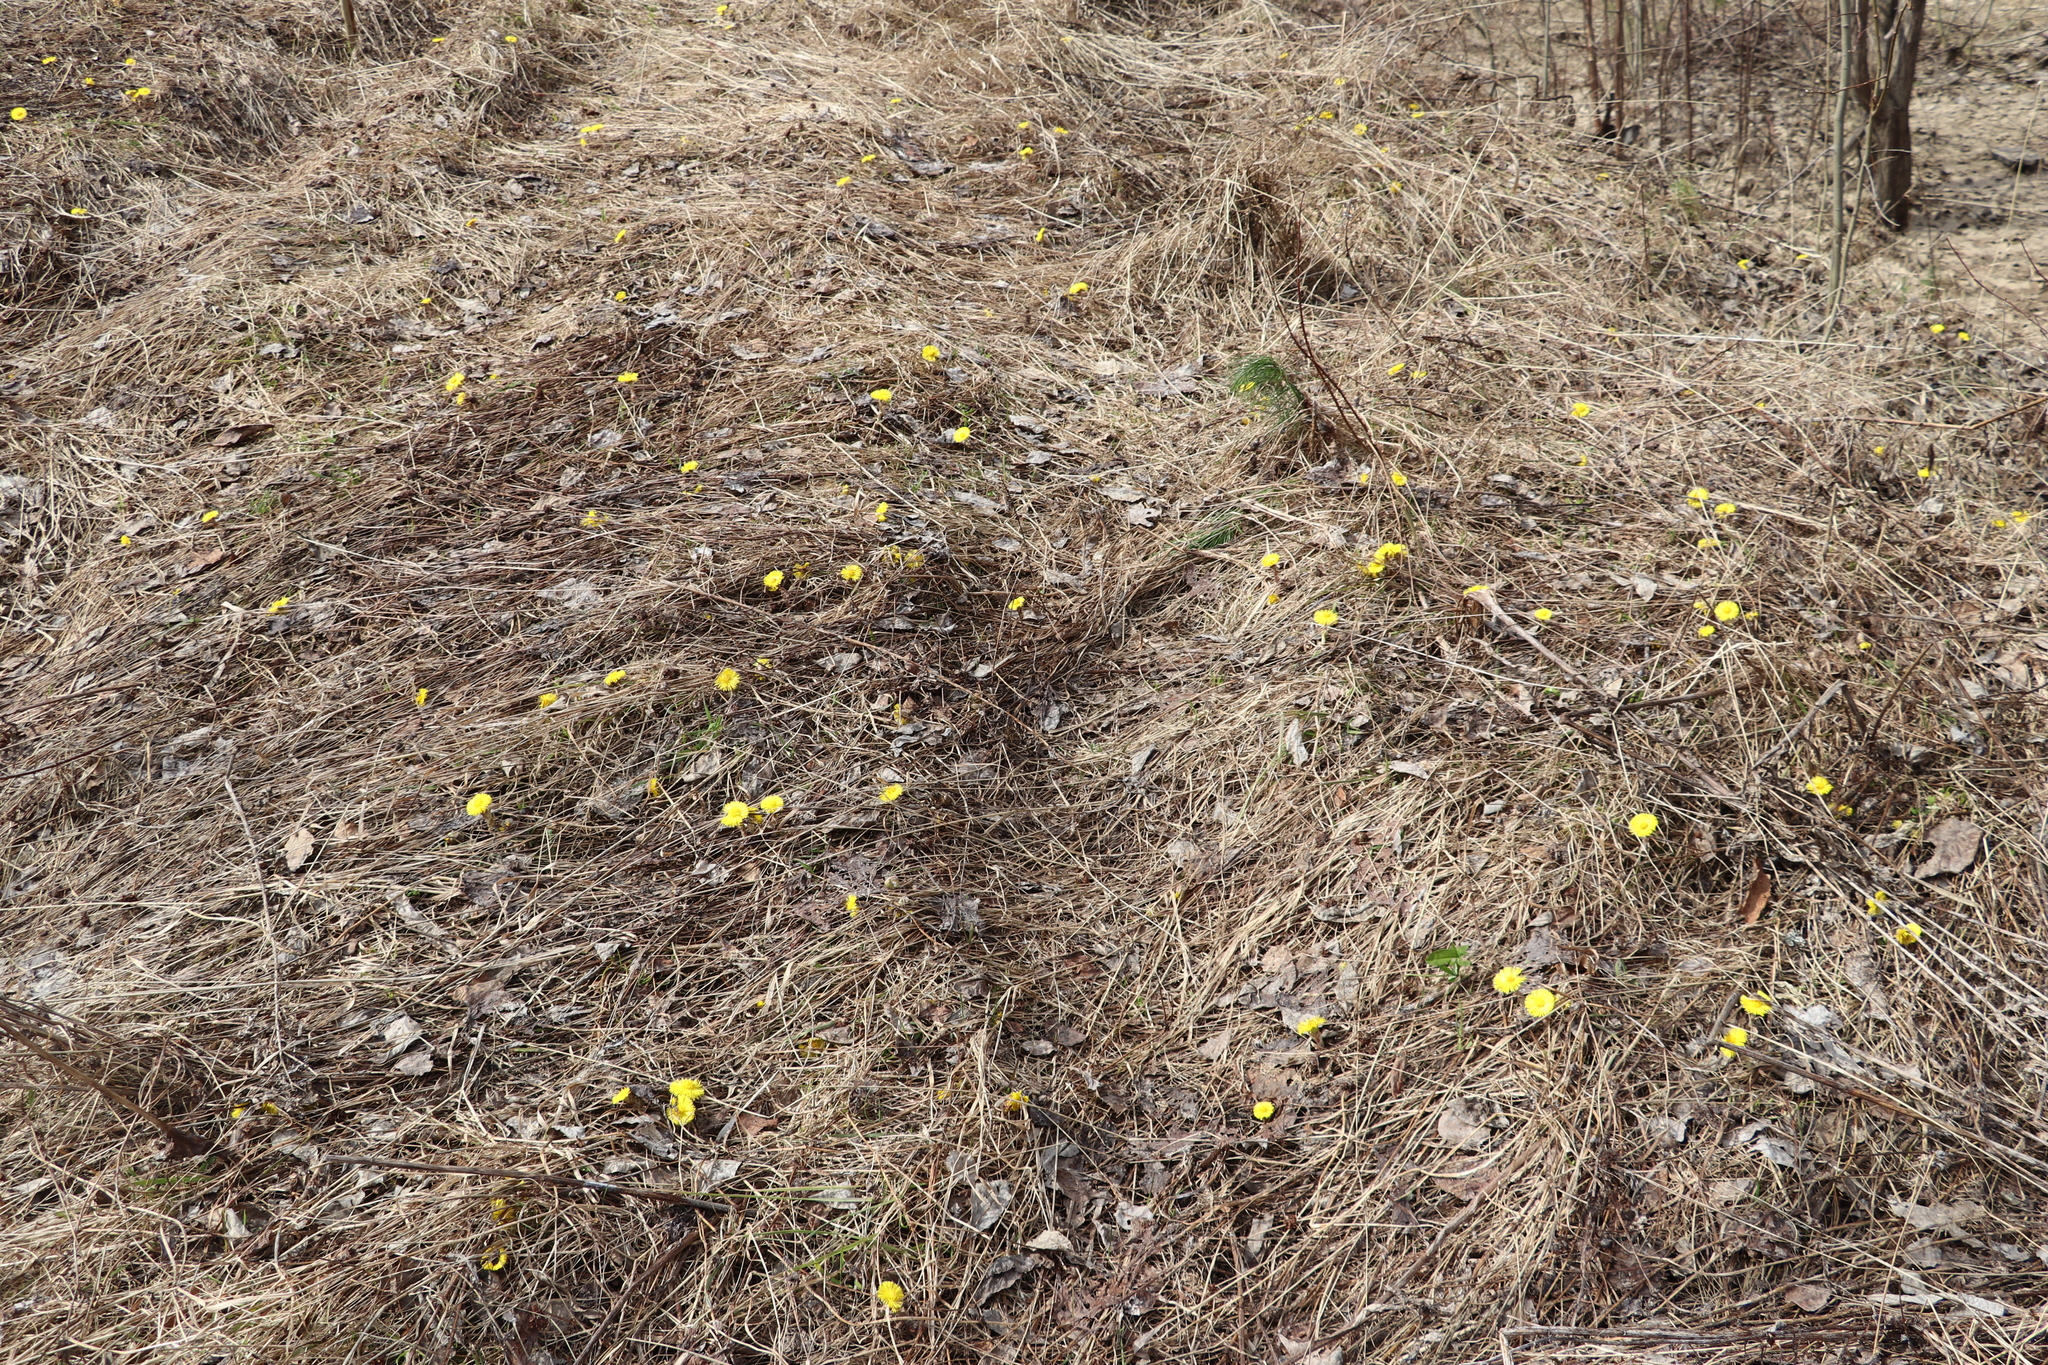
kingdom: Plantae
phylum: Tracheophyta
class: Magnoliopsida
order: Asterales
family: Asteraceae
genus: Tussilago
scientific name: Tussilago farfara
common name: Coltsfoot
